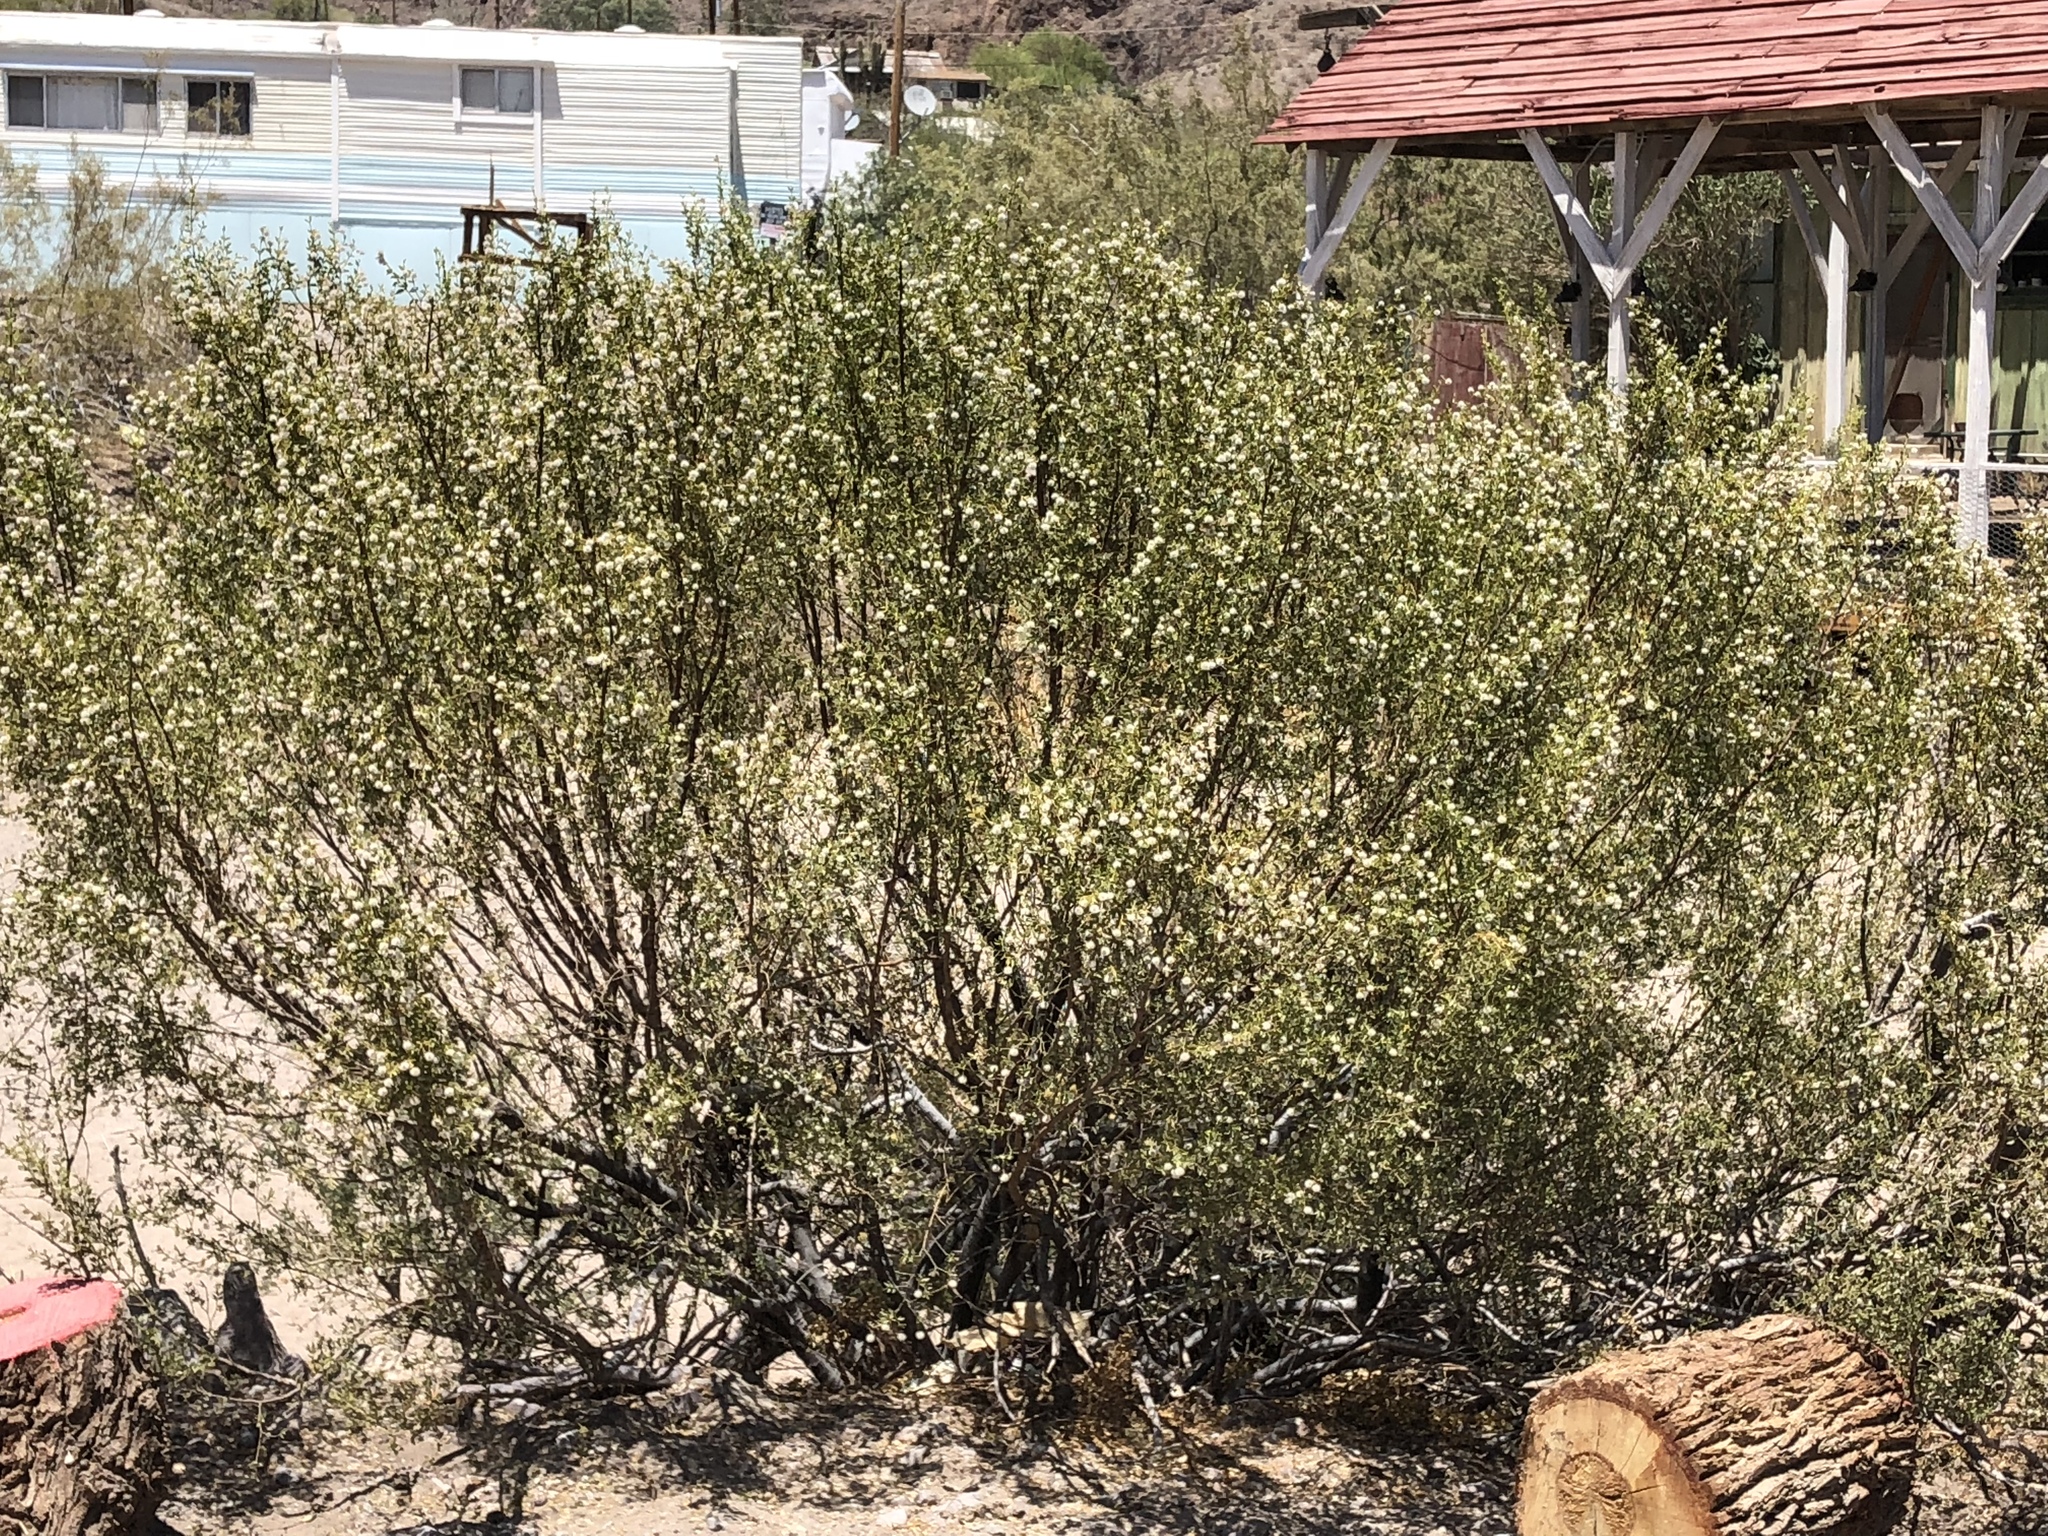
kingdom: Plantae
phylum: Tracheophyta
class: Magnoliopsida
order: Zygophyllales
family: Zygophyllaceae
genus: Larrea
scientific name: Larrea tridentata
